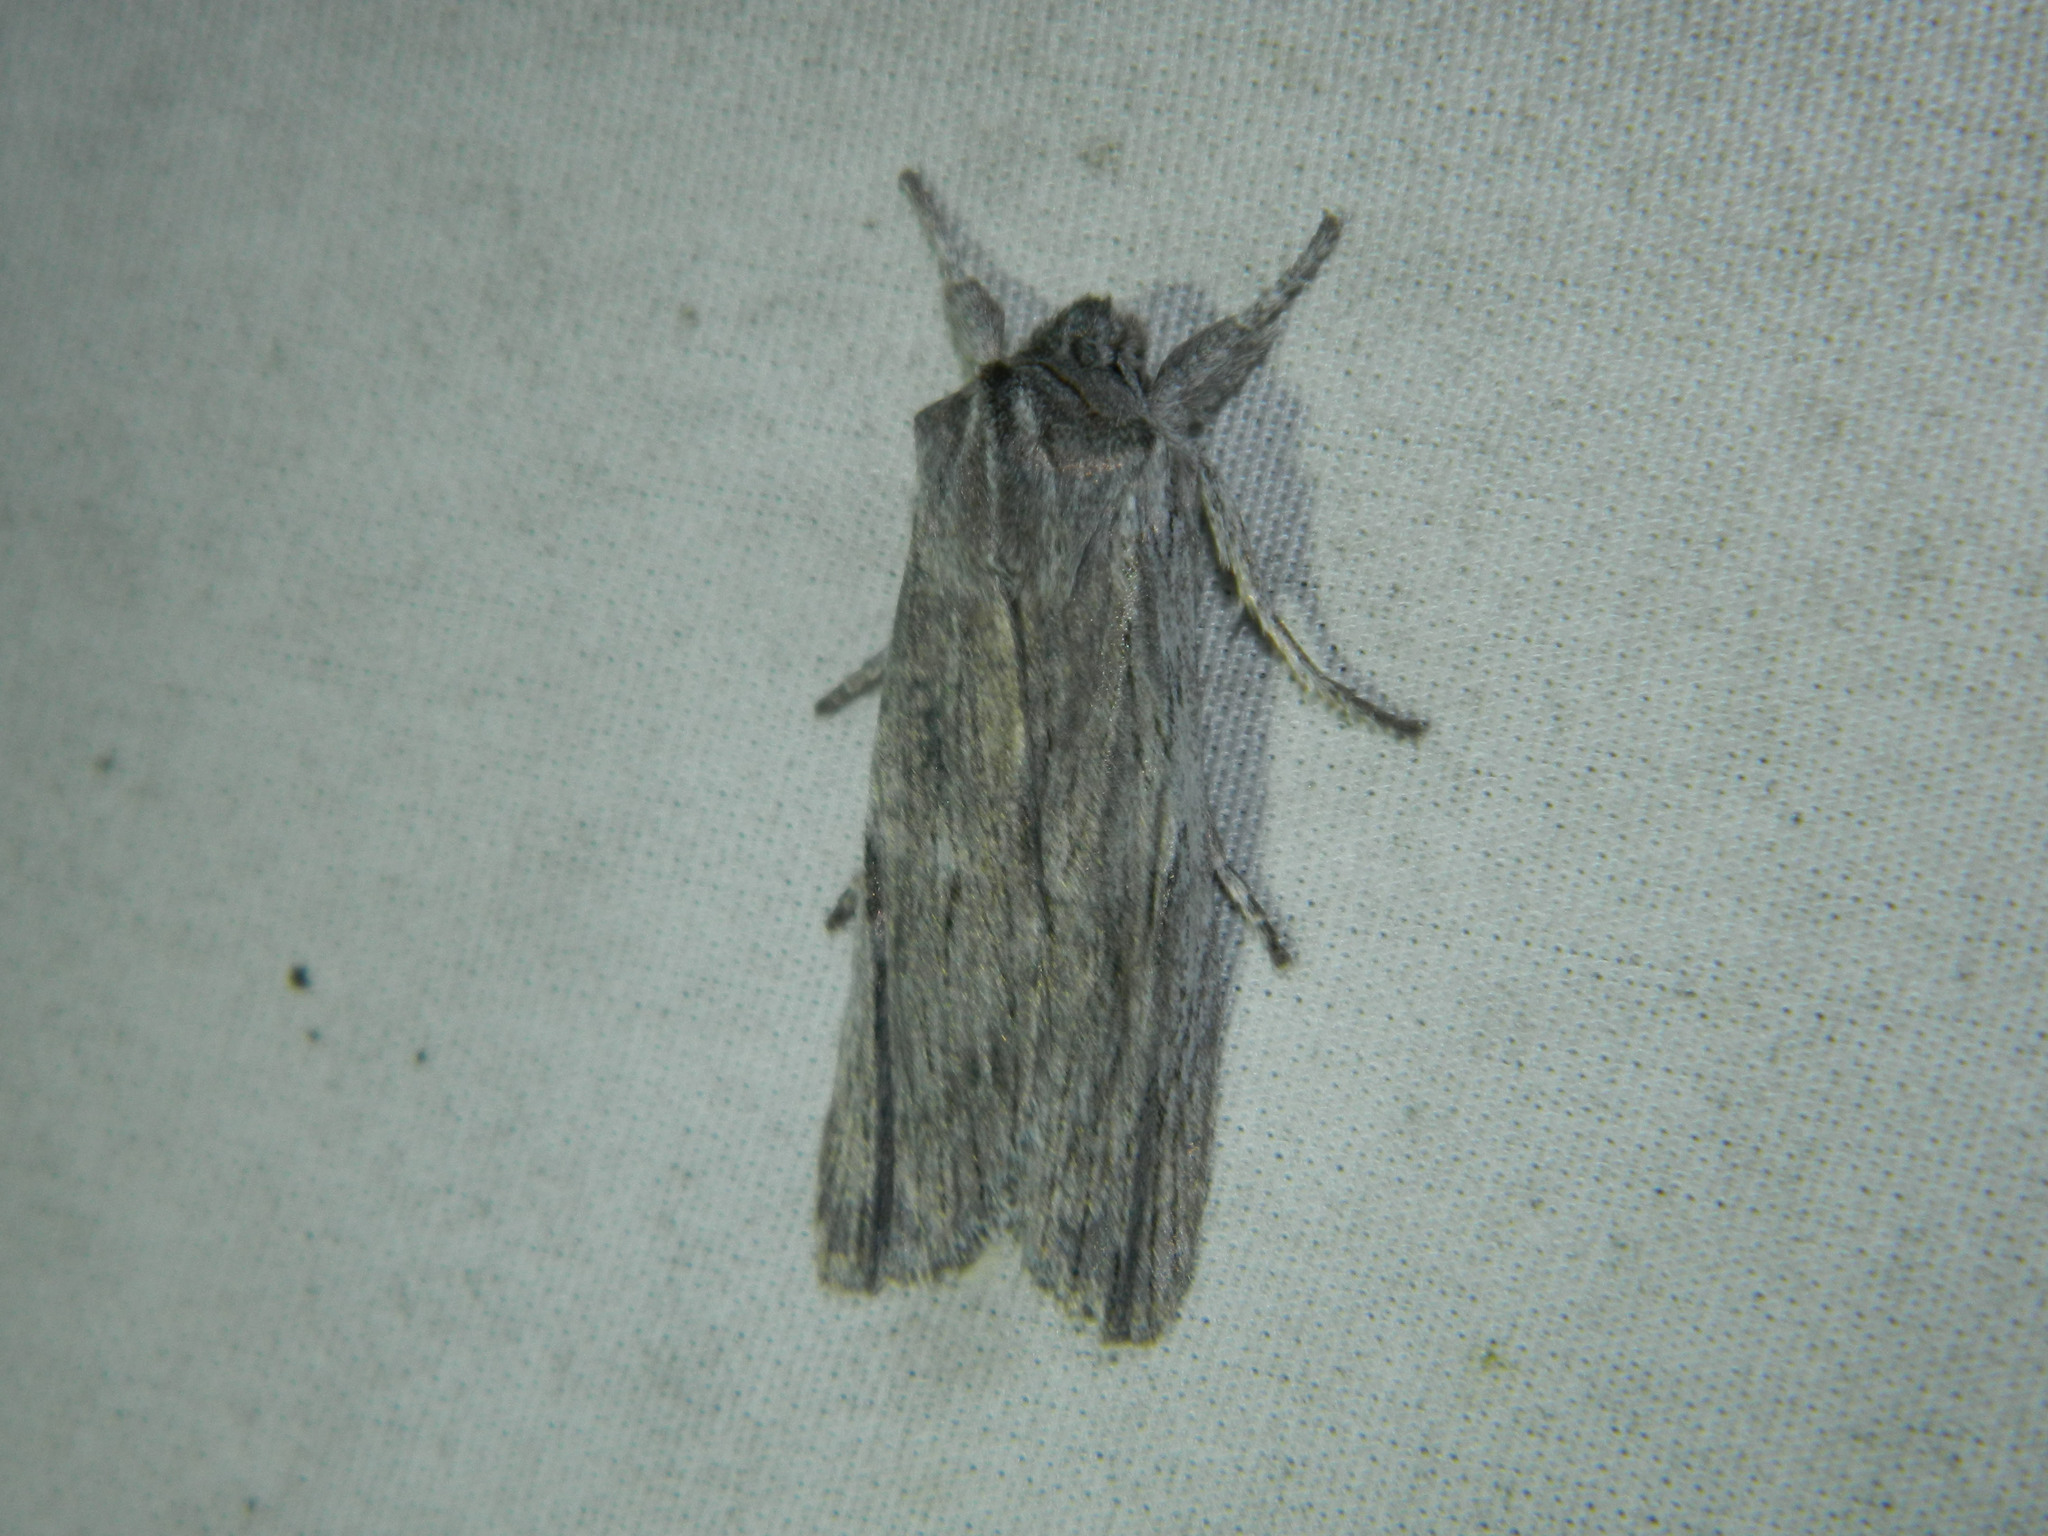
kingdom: Animalia
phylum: Arthropoda
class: Insecta
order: Lepidoptera
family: Noctuidae
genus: Lithophane
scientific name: Lithophane fagina
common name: Hoary pinion moth
